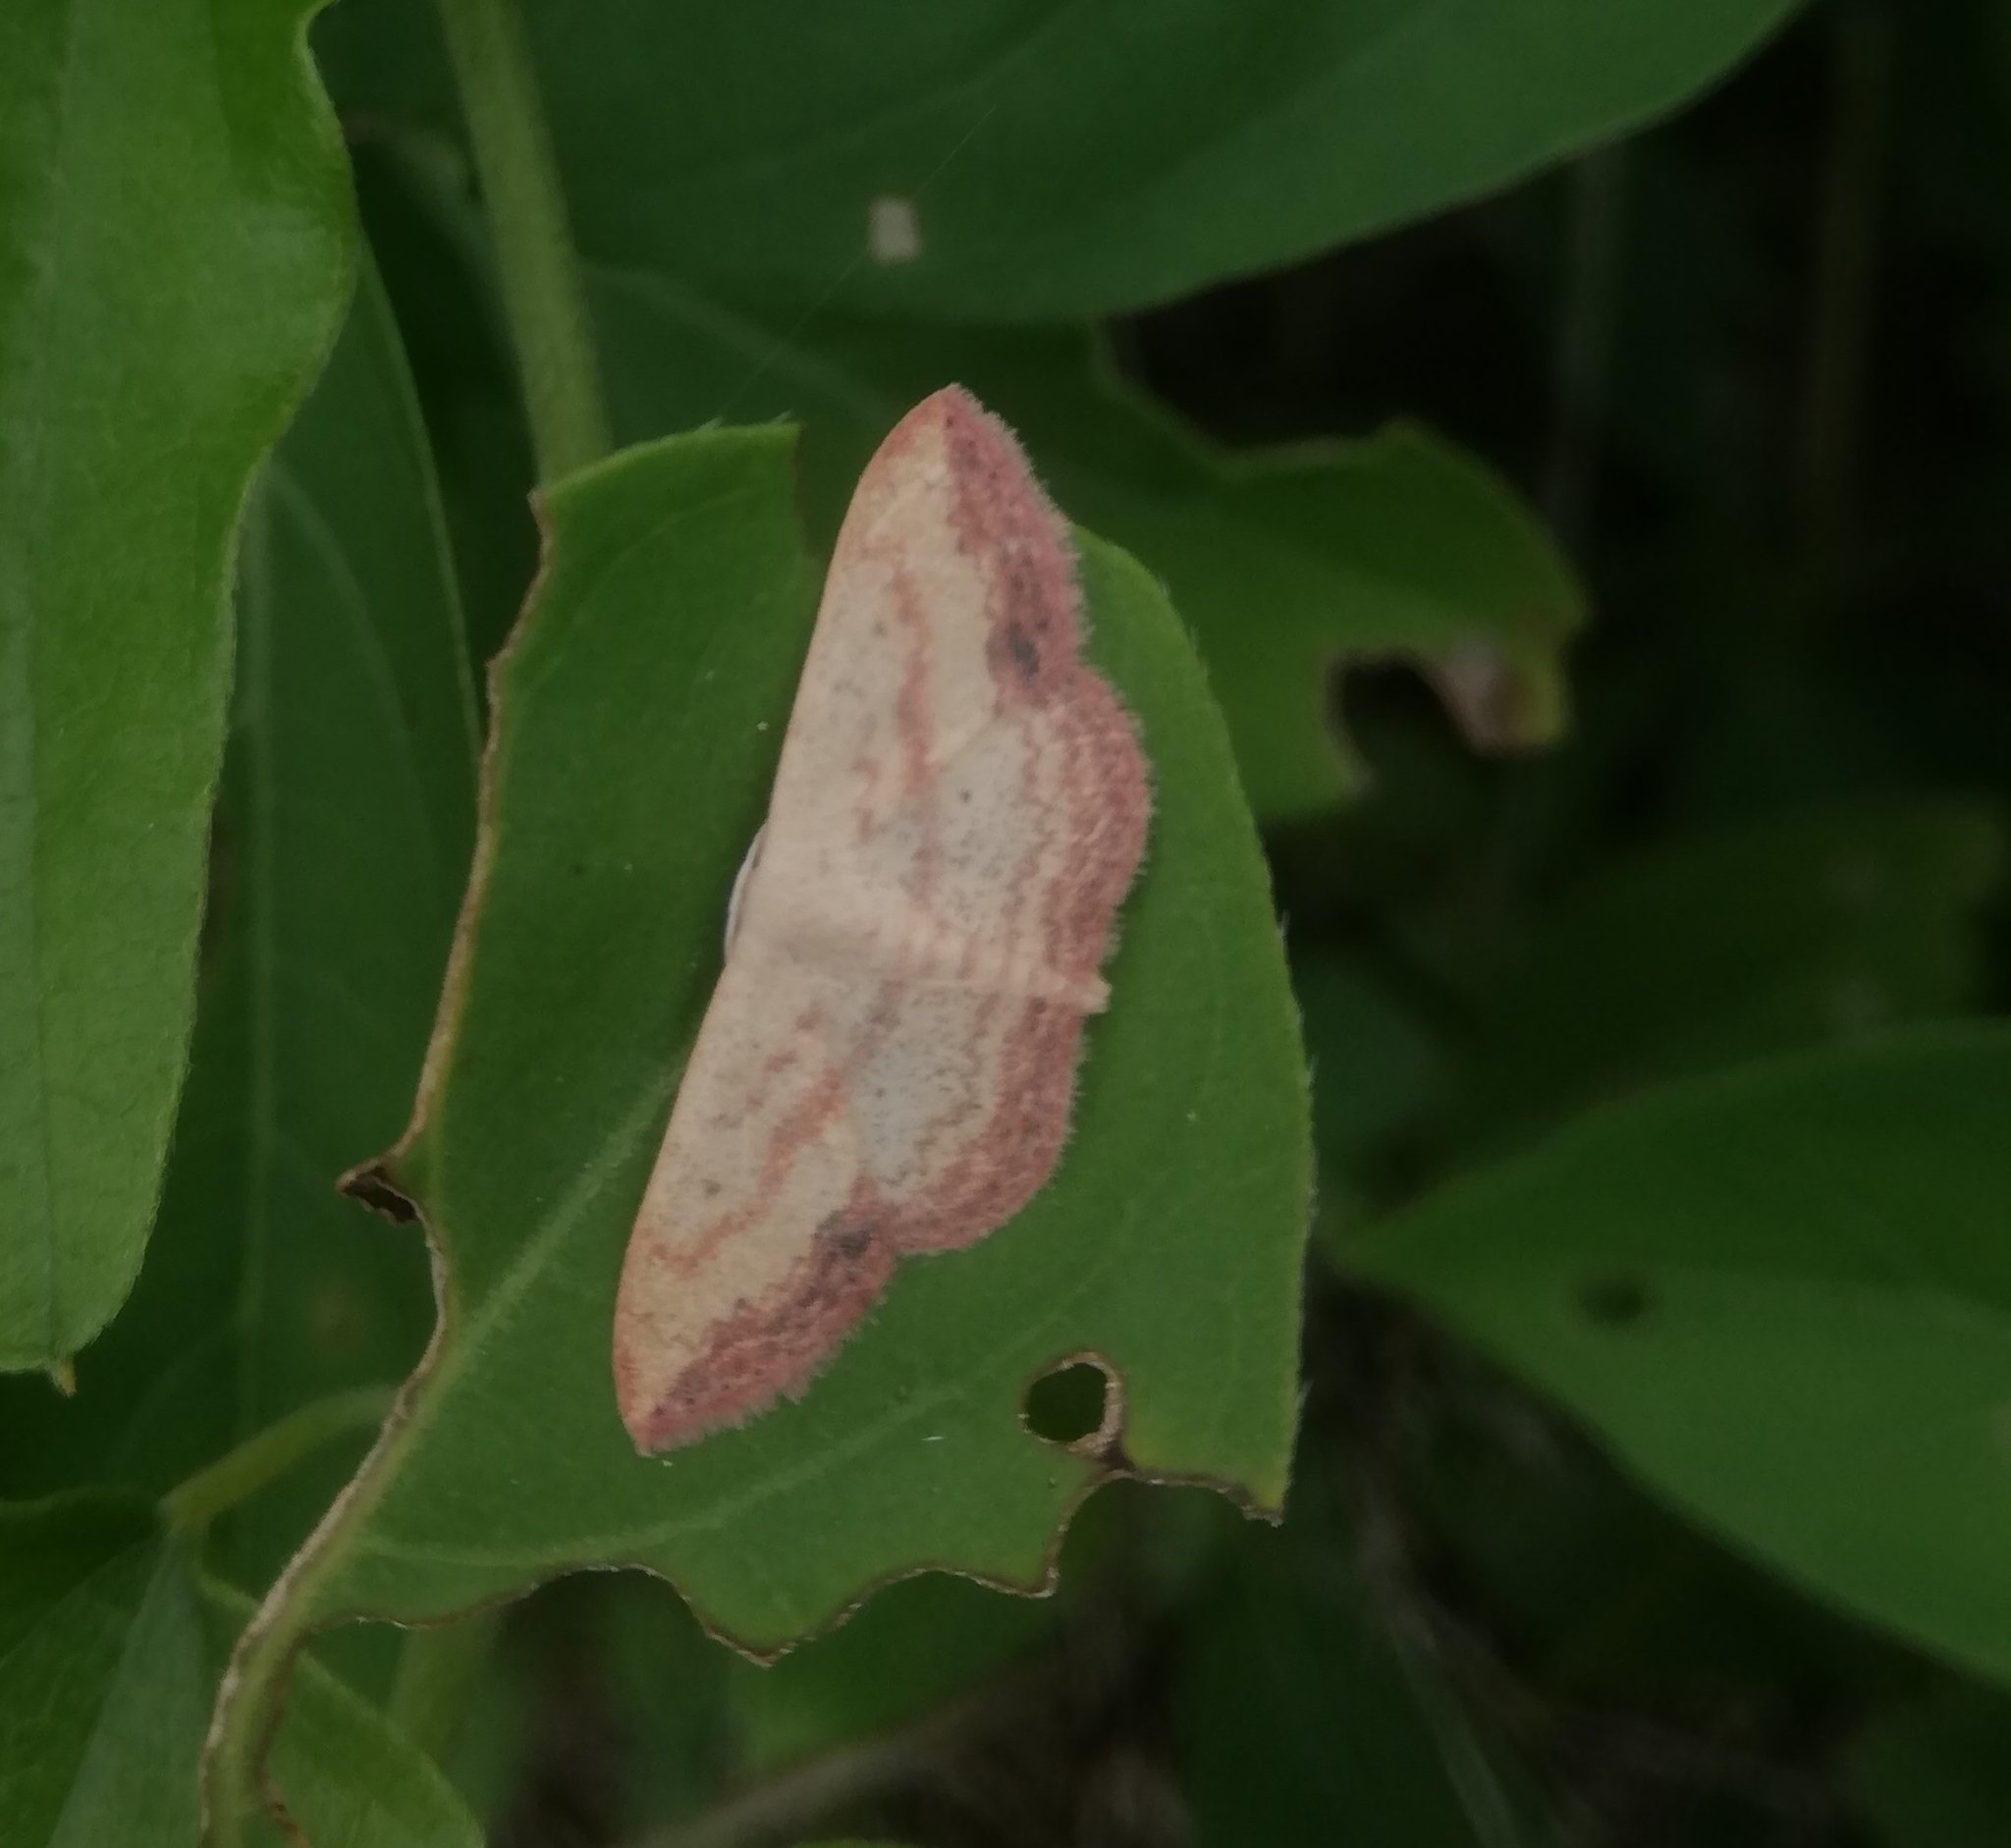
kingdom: Animalia
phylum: Arthropoda
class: Insecta
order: Lepidoptera
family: Geometridae
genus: Scopula
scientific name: Scopula caesaria
